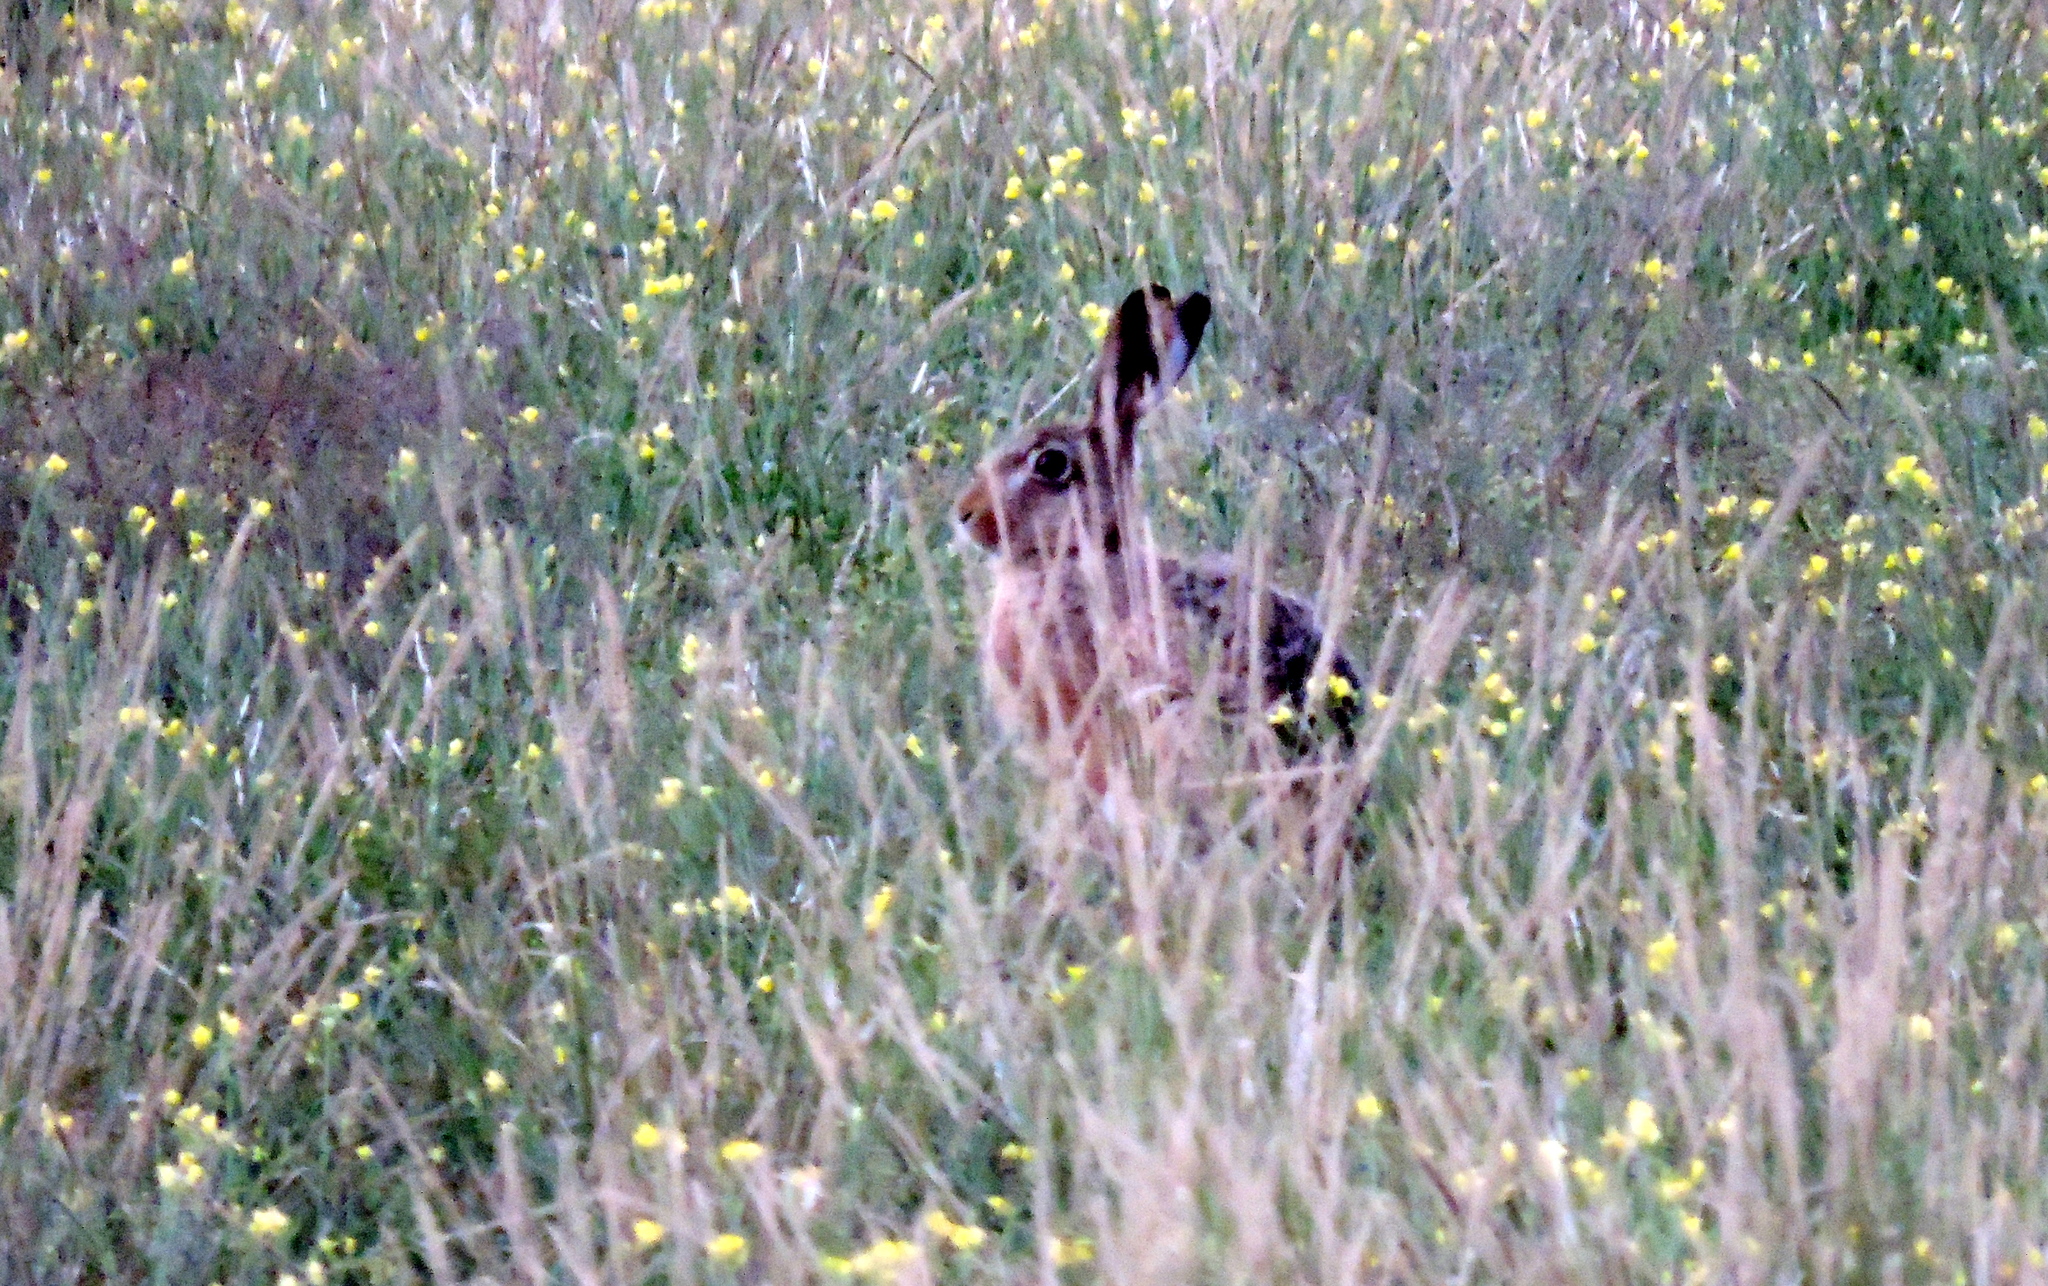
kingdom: Animalia
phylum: Chordata
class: Mammalia
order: Lagomorpha
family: Leporidae
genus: Lepus
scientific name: Lepus europaeus
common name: European hare
